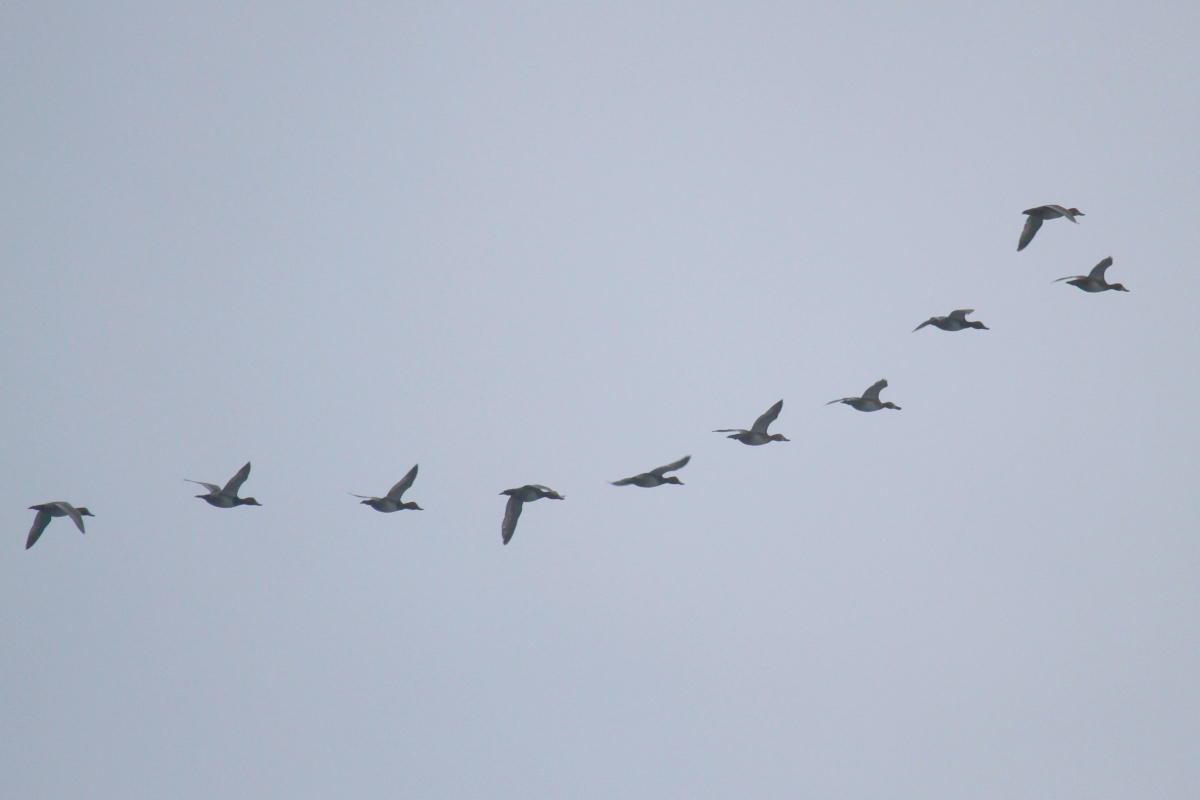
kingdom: Animalia
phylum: Chordata
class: Aves
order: Anseriformes
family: Anatidae
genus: Aythya
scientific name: Aythya americana
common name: Redhead
